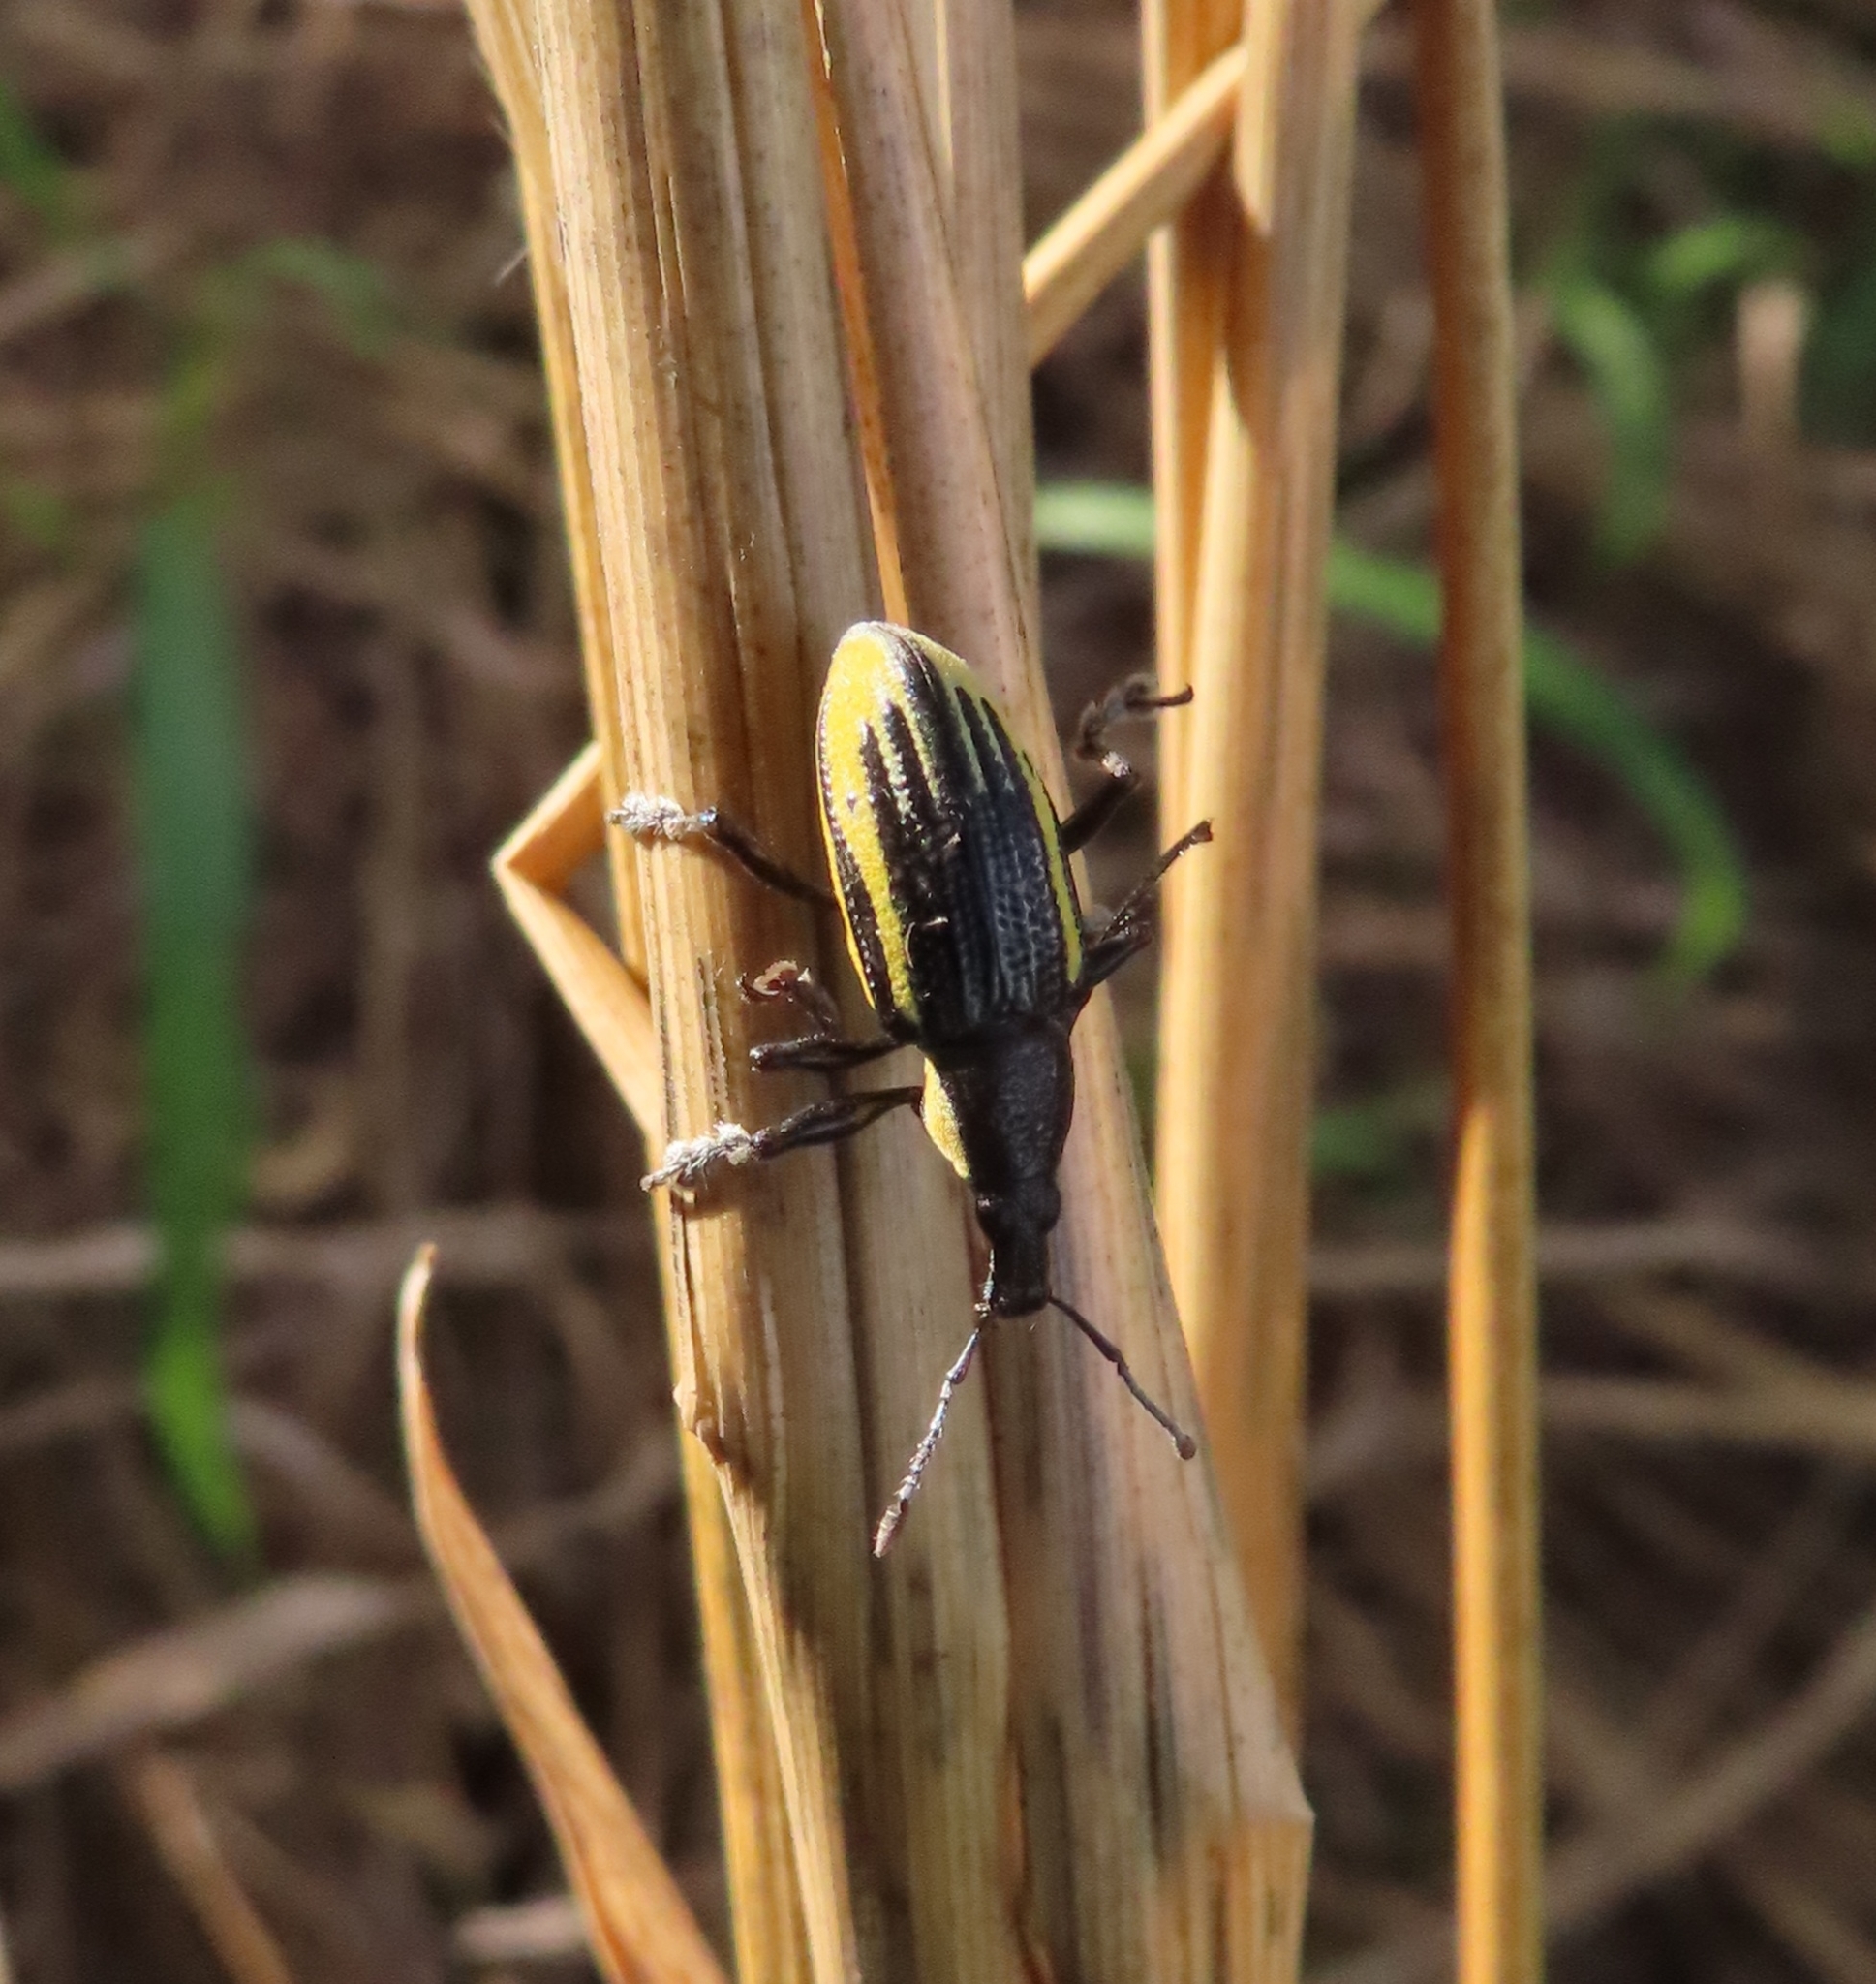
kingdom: Animalia
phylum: Arthropoda
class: Insecta
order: Coleoptera
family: Curculionidae
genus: Diaprepes
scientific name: Diaprepes abbreviatus
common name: Root weevil
